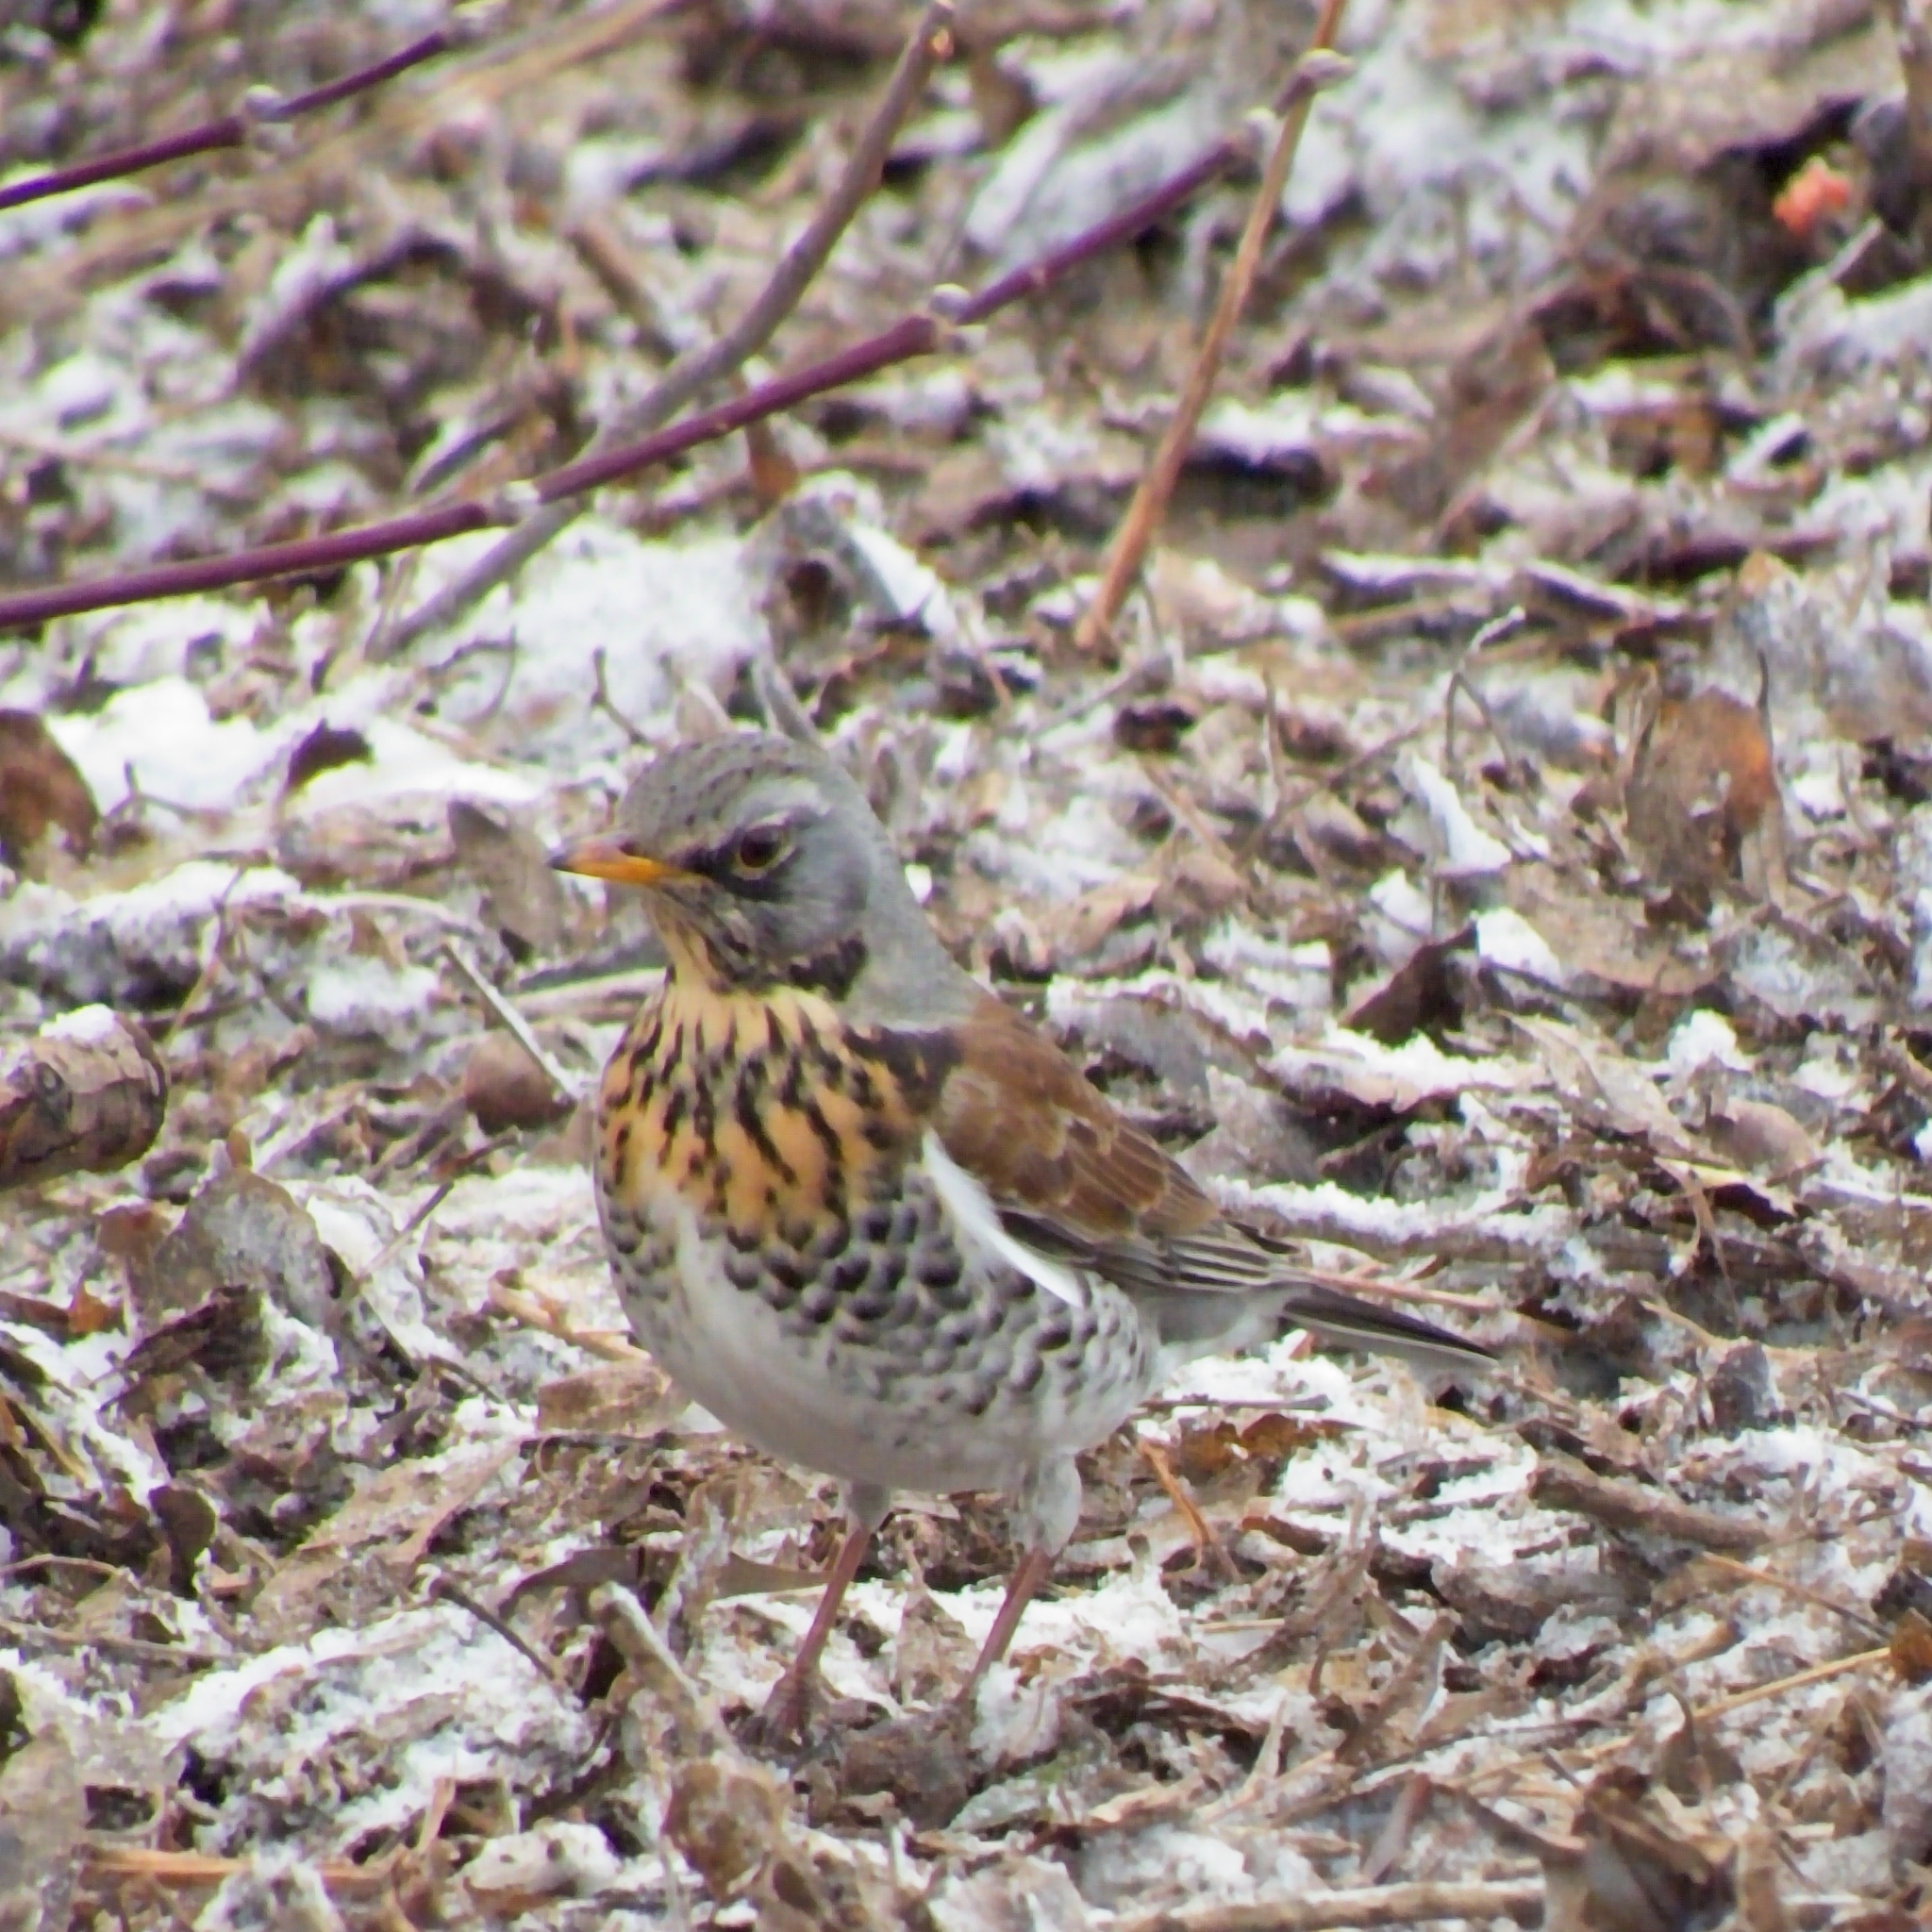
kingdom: Animalia
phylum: Chordata
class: Aves
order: Passeriformes
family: Turdidae
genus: Turdus
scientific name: Turdus pilaris
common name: Fieldfare
